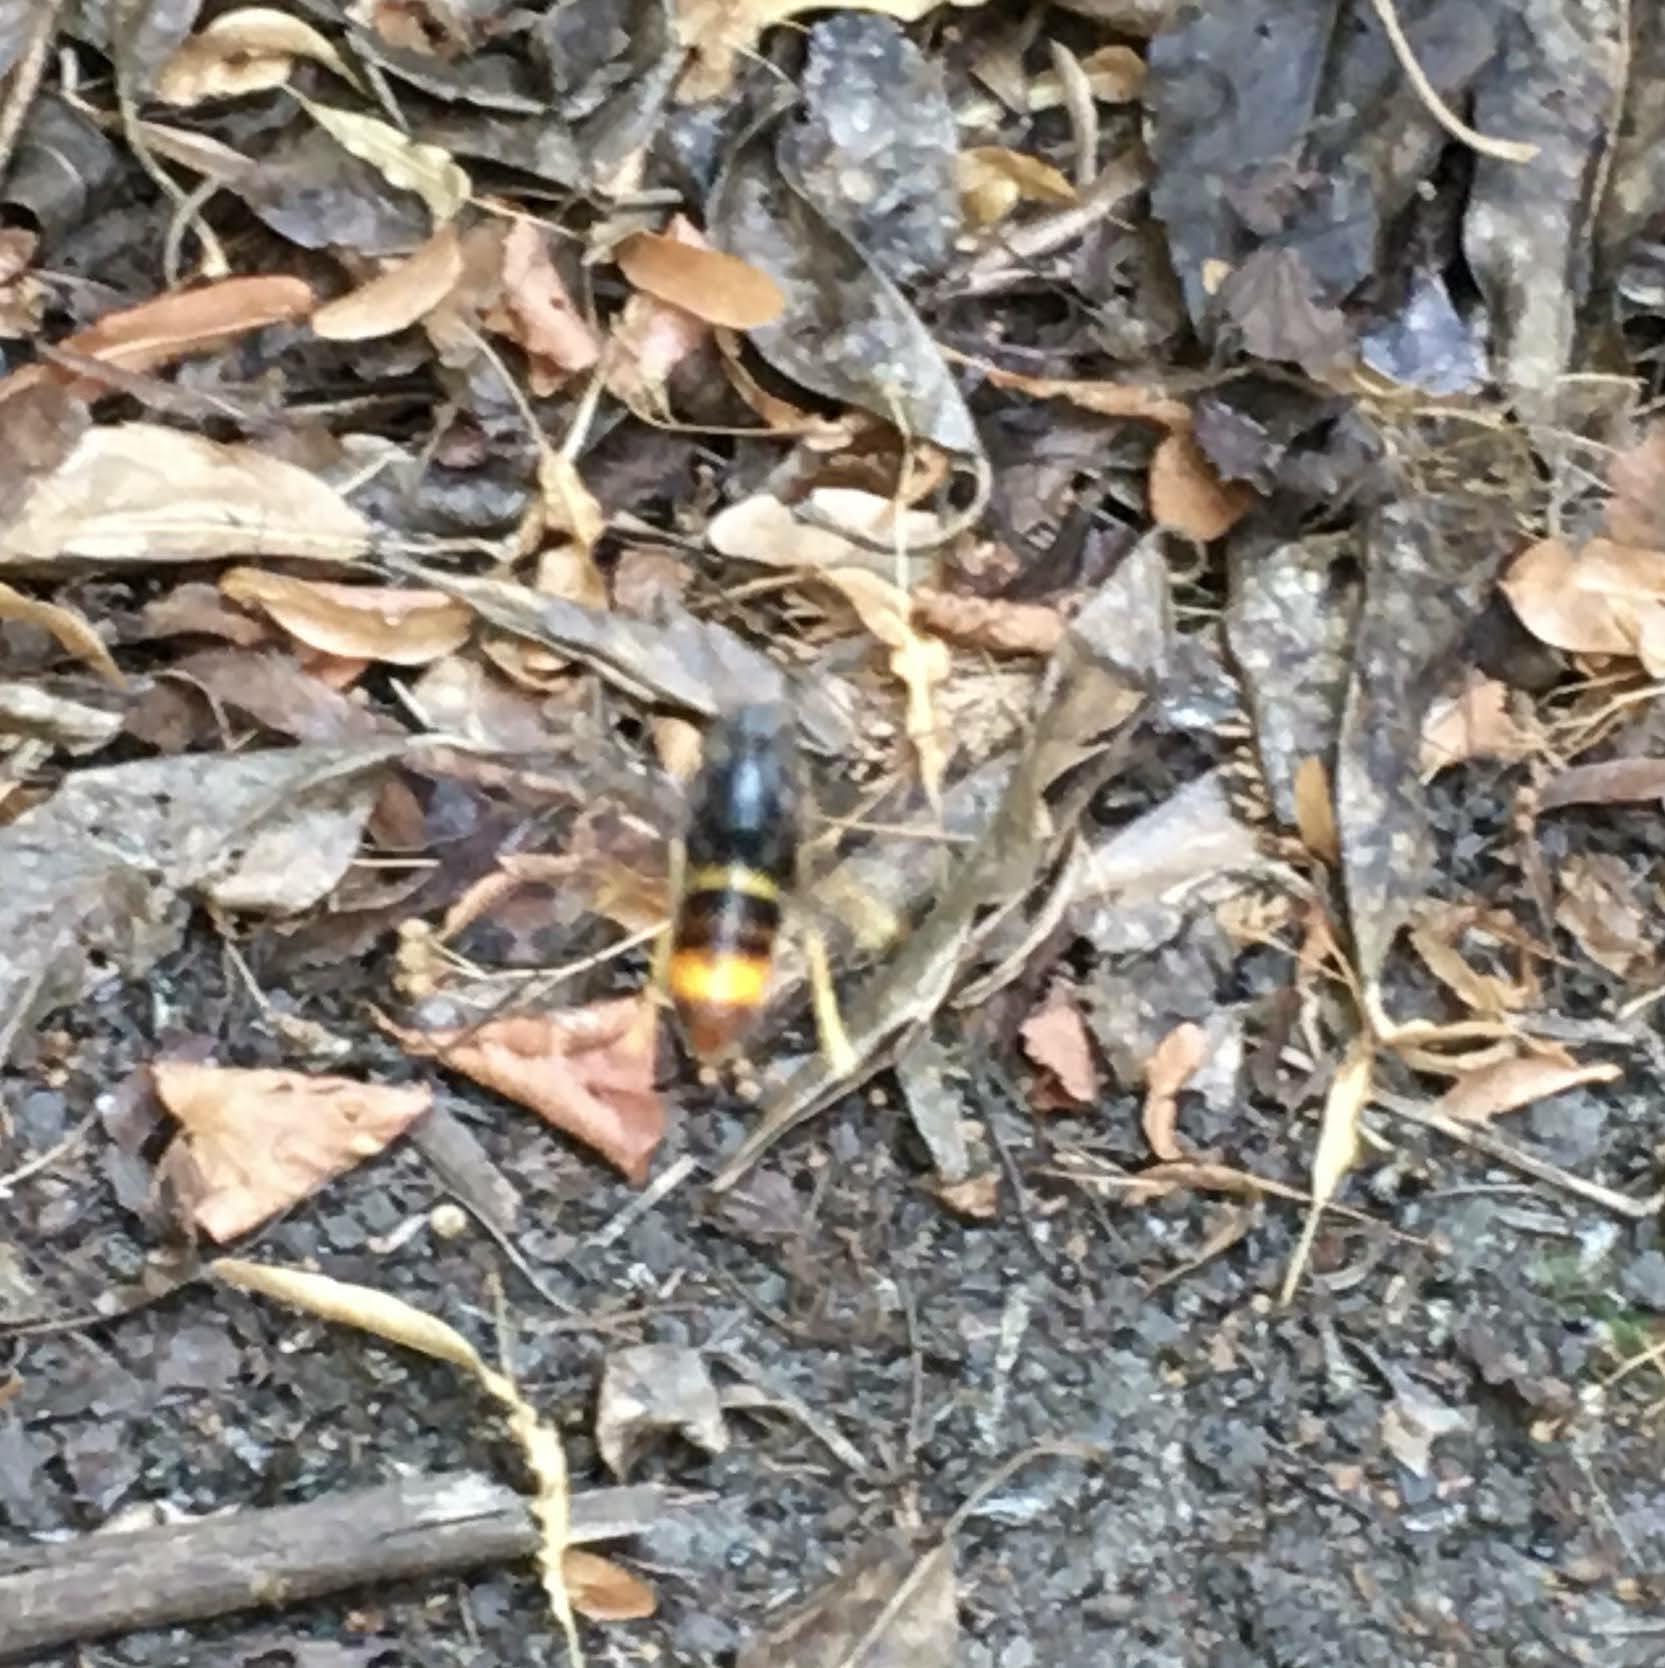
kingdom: Animalia
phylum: Arthropoda
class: Insecta
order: Hymenoptera
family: Vespidae
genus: Vespa
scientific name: Vespa velutina
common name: Asian hornet
